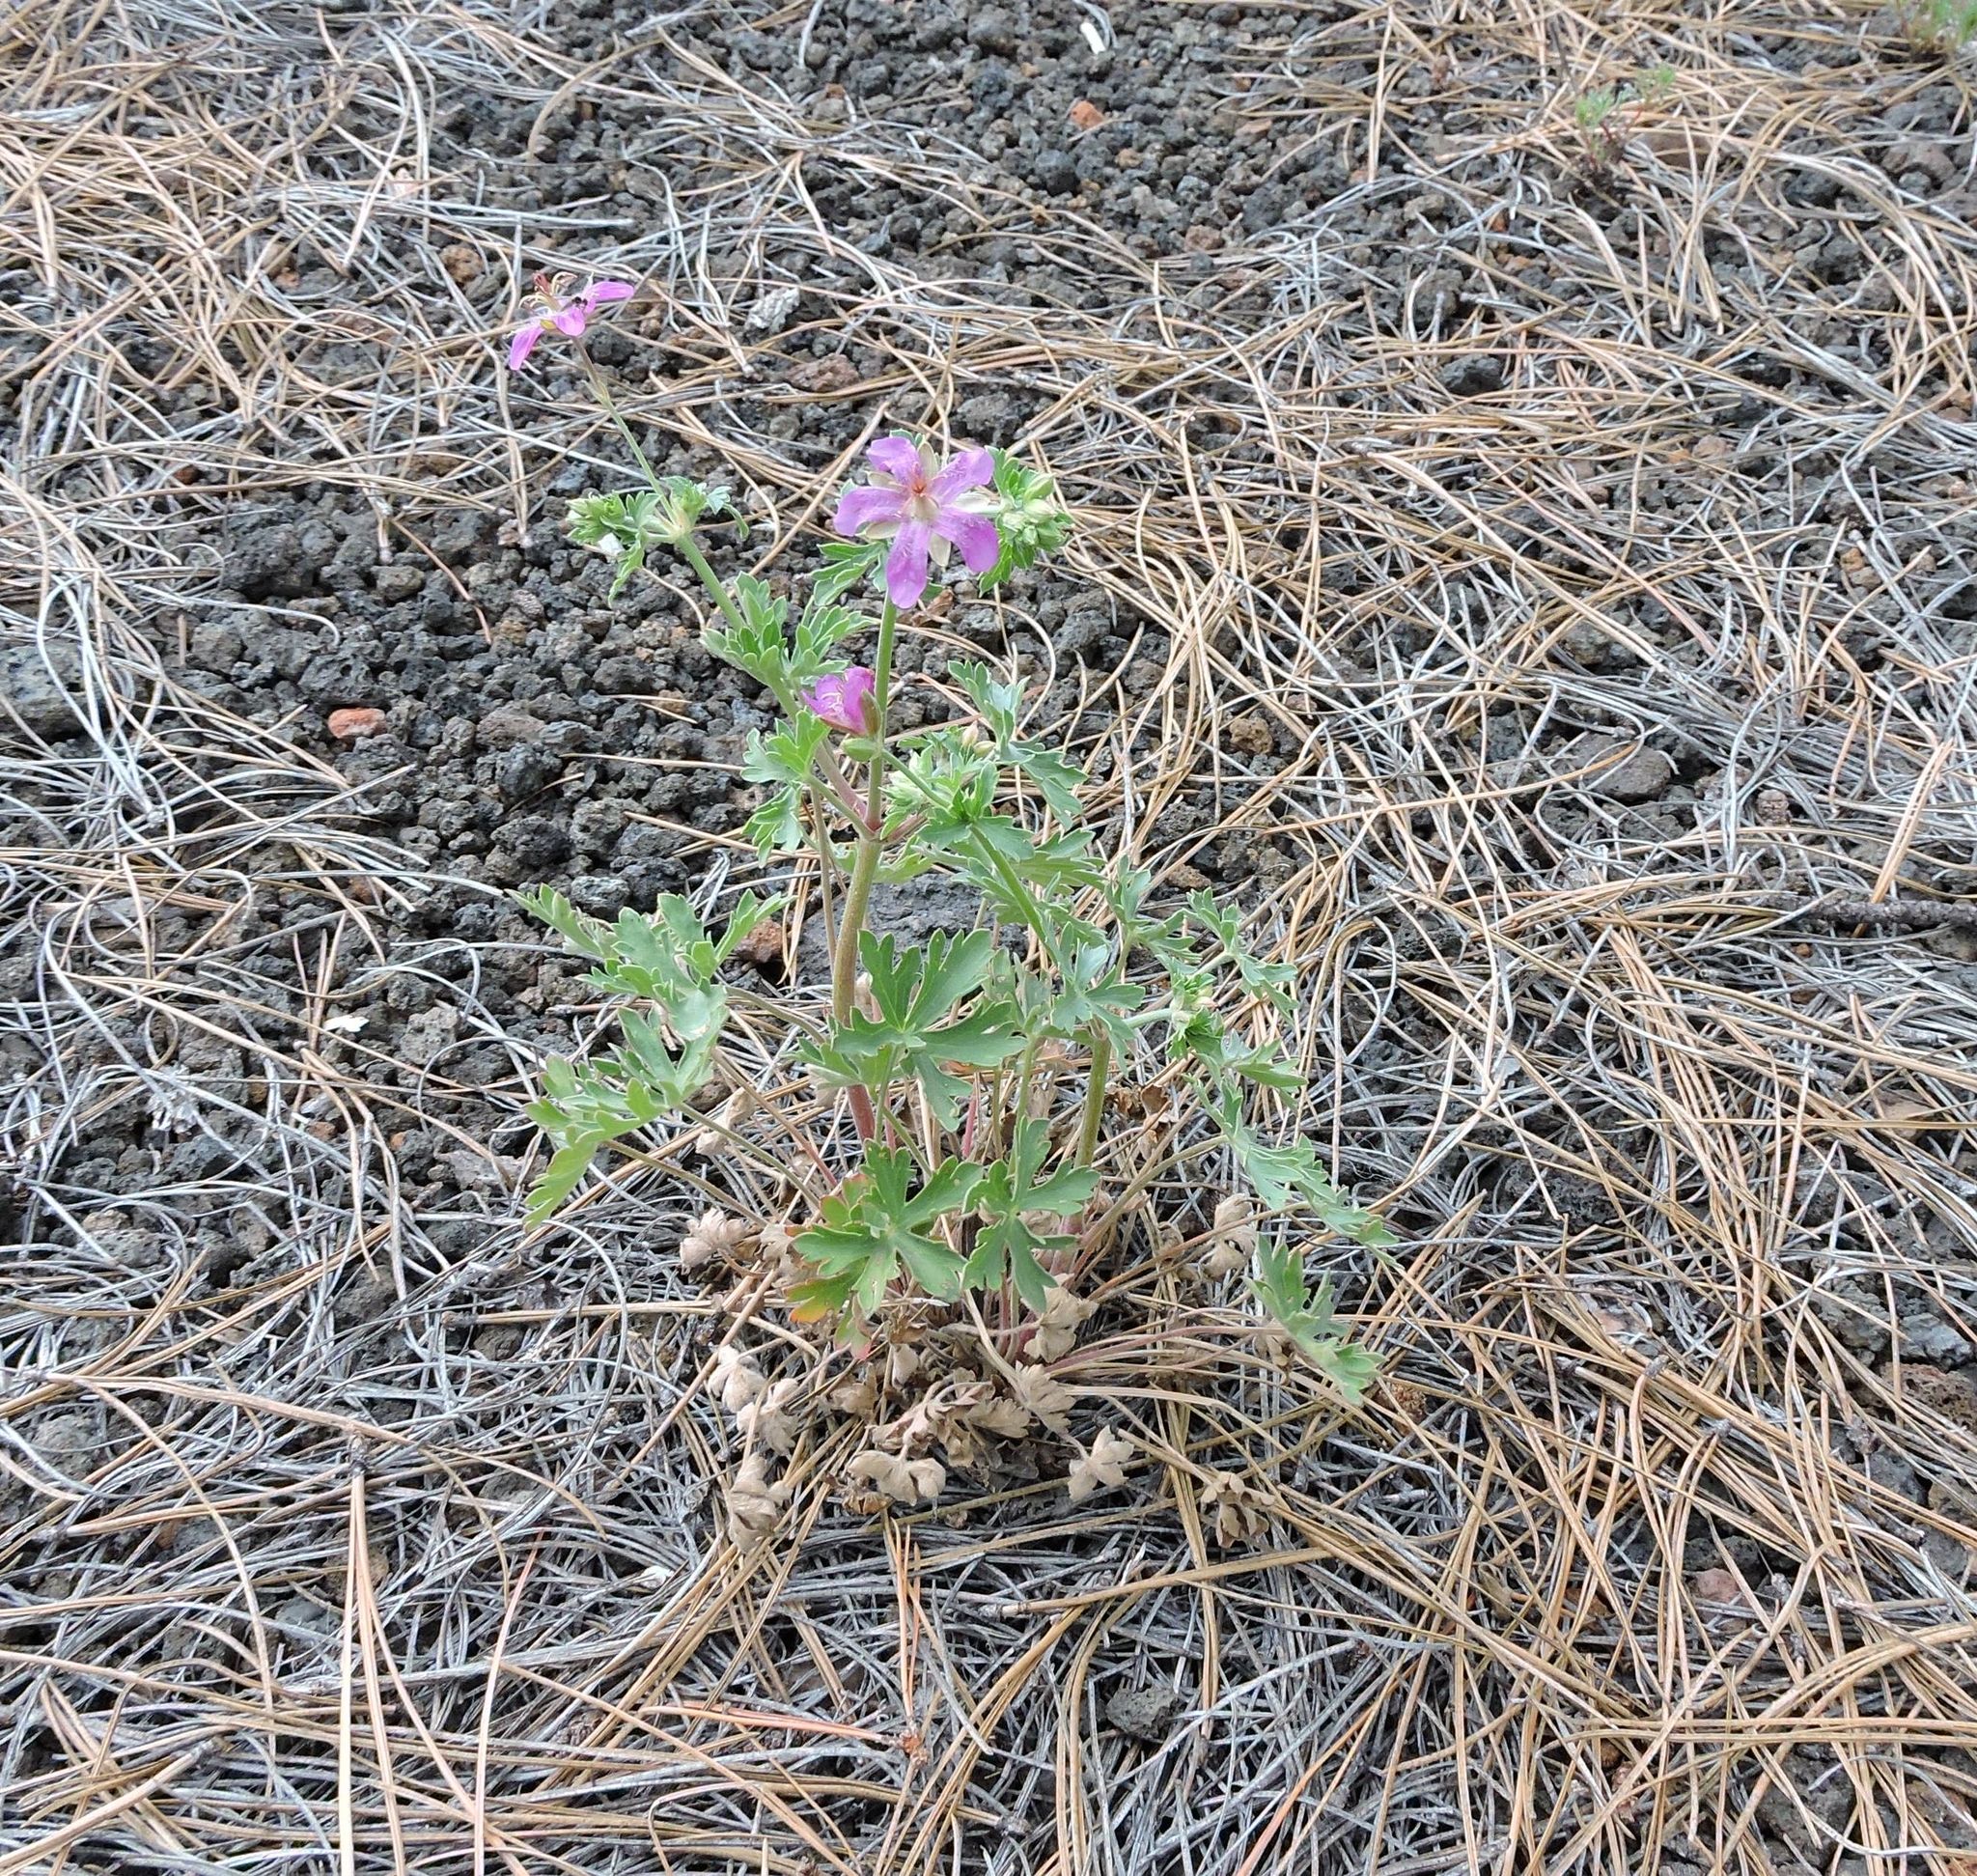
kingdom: Plantae
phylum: Tracheophyta
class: Magnoliopsida
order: Geraniales
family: Geraniaceae
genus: Geranium
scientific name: Geranium caespitosum
